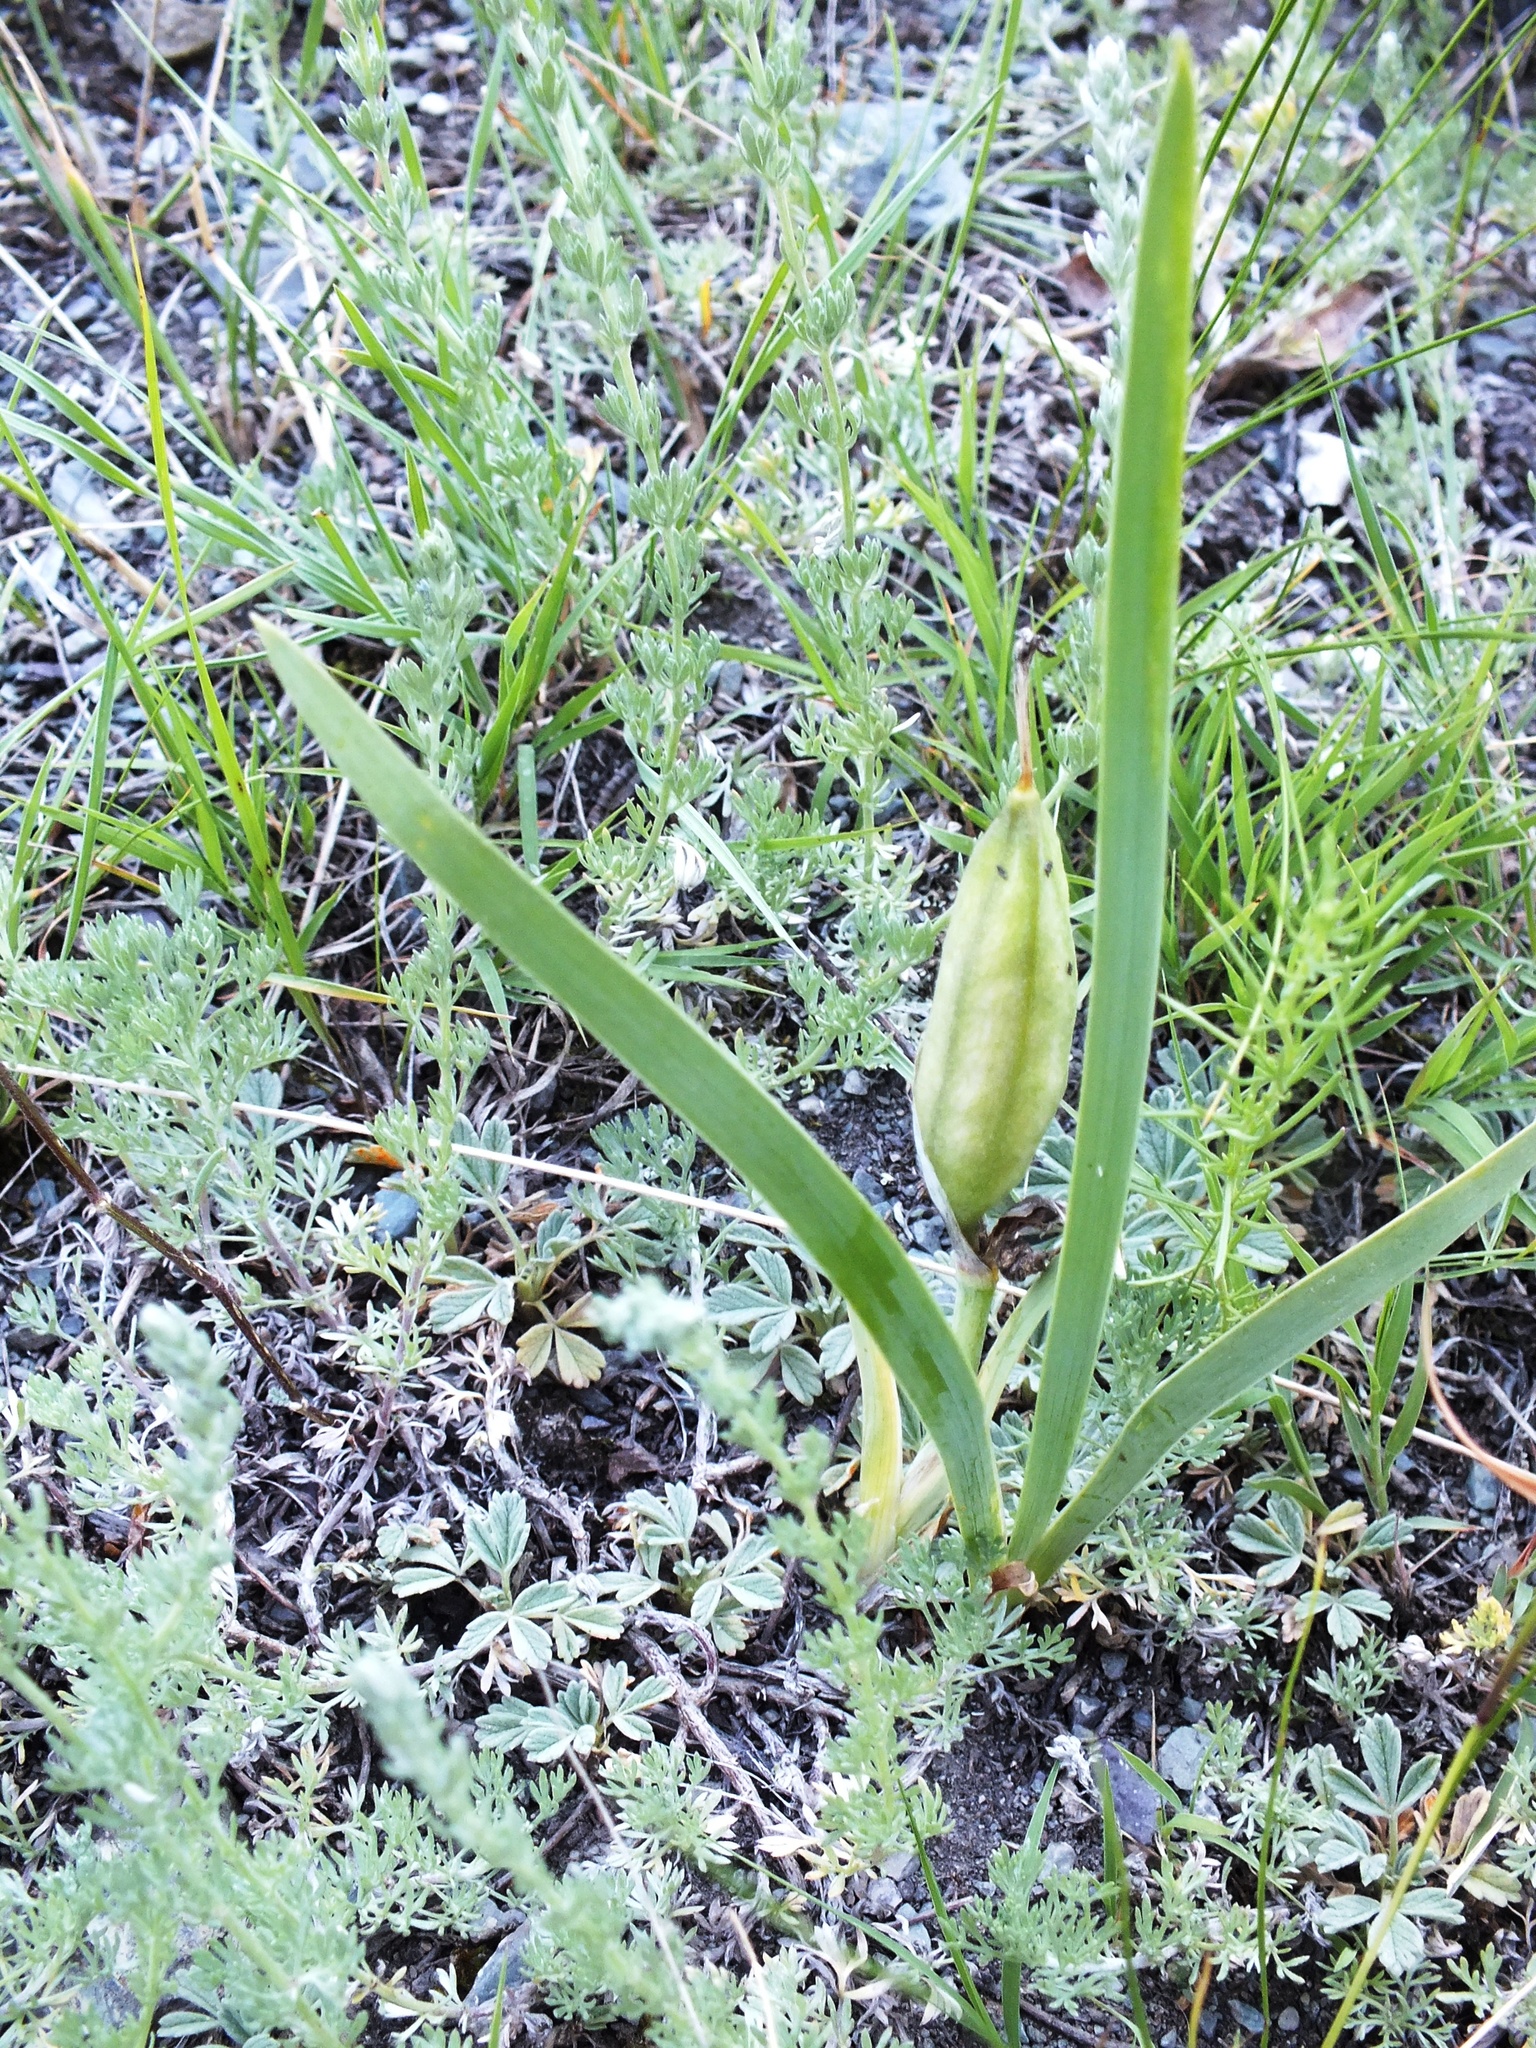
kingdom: Plantae
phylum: Tracheophyta
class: Liliopsida
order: Asparagales
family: Iridaceae
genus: Iris
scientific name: Iris humilis
